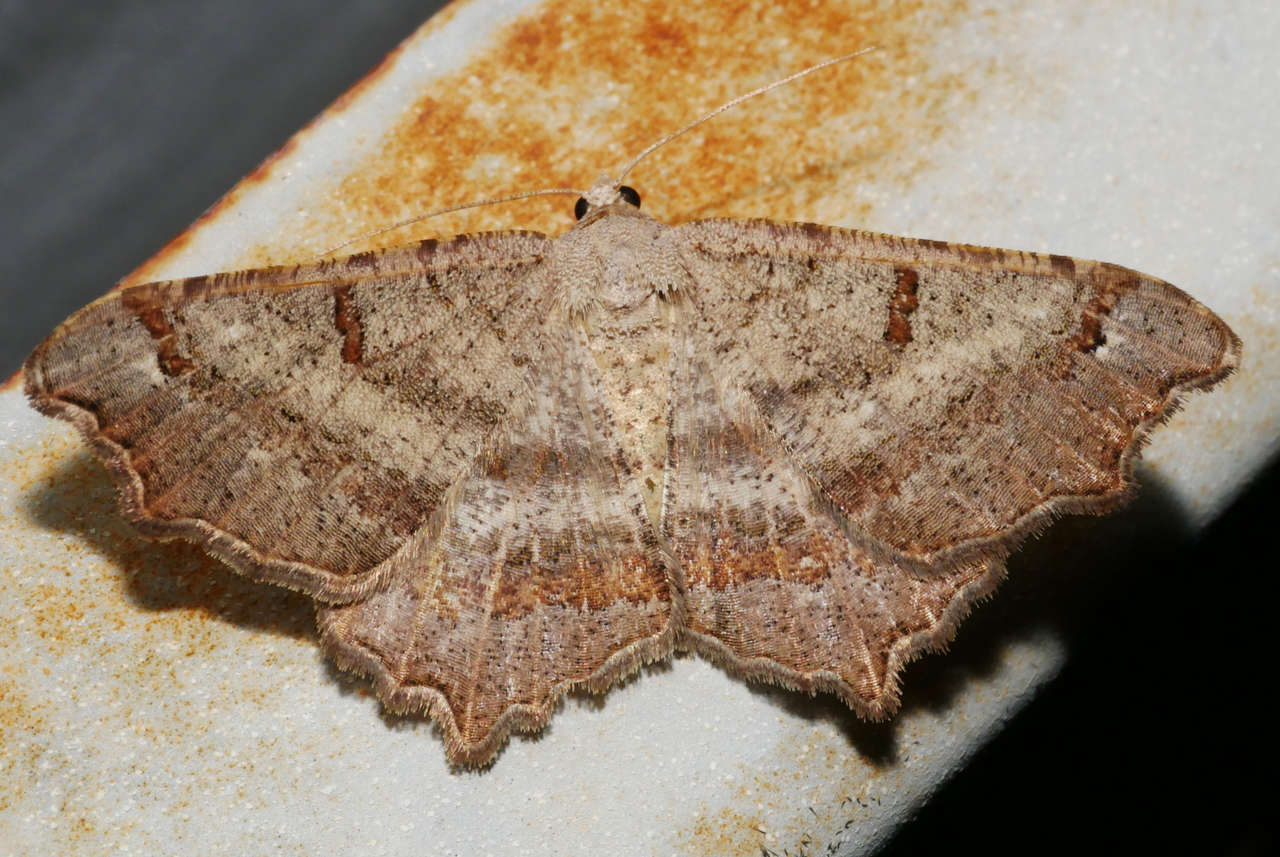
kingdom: Animalia
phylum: Arthropoda
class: Insecta
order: Lepidoptera
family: Geometridae
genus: Dissomorphia
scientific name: Dissomorphia australiaria
